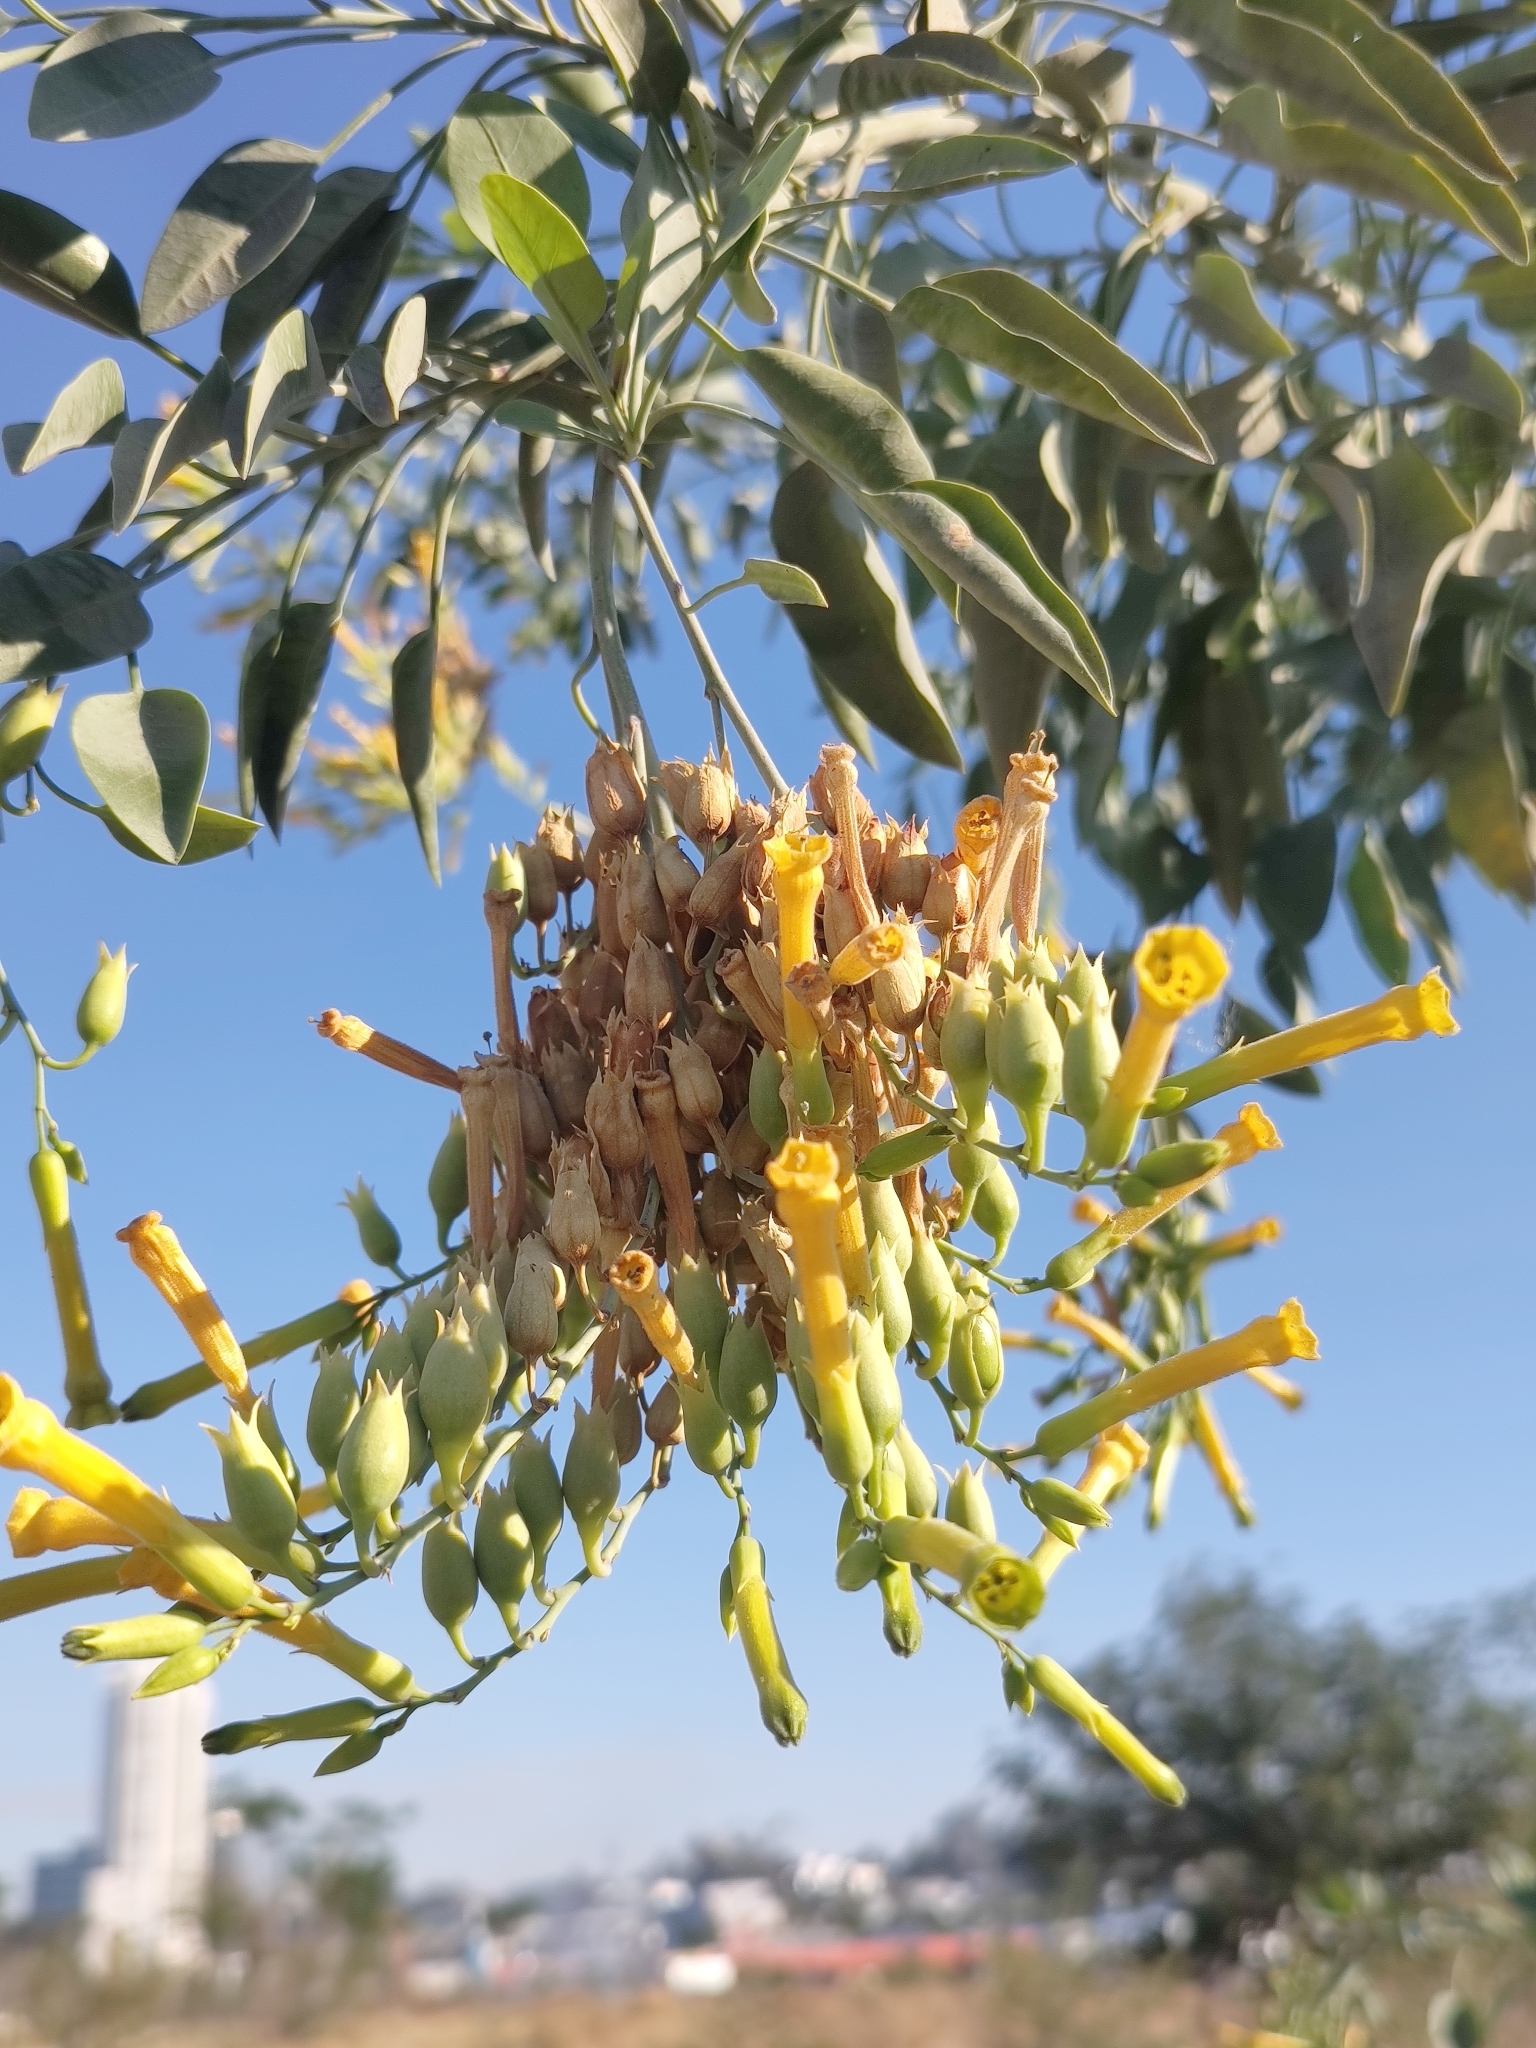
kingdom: Plantae
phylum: Tracheophyta
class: Magnoliopsida
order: Solanales
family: Solanaceae
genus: Nicotiana
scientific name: Nicotiana glauca
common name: Tree tobacco
